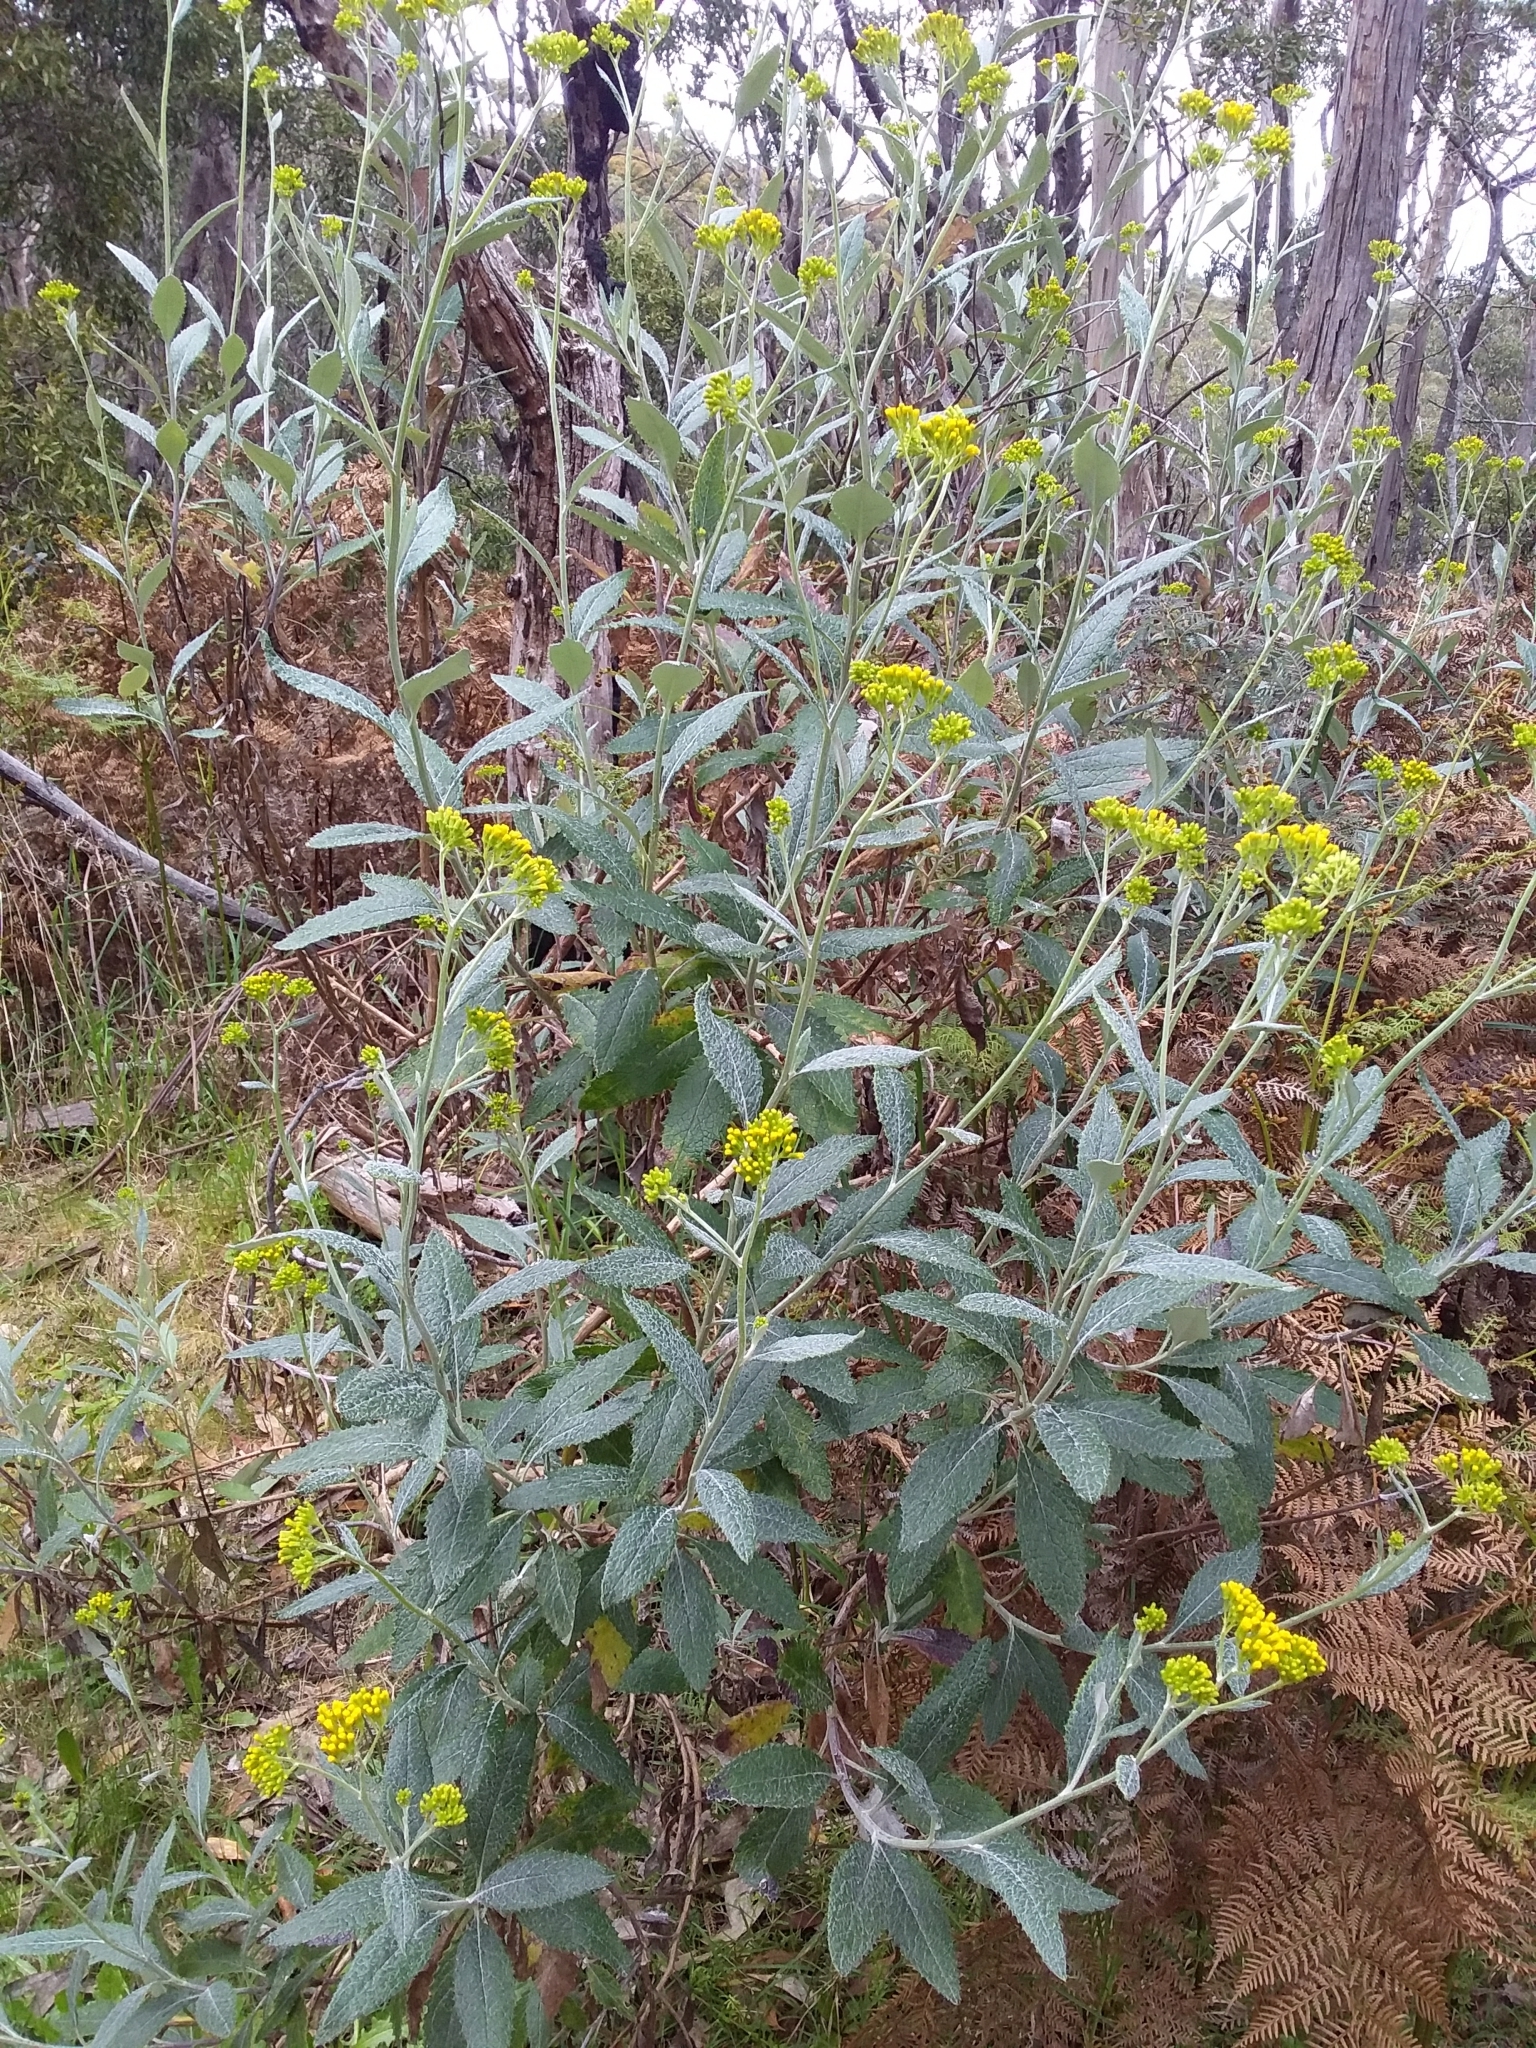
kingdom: Plantae
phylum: Tracheophyta
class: Magnoliopsida
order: Asterales
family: Asteraceae
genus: Senecio
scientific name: Senecio hypoleucus
